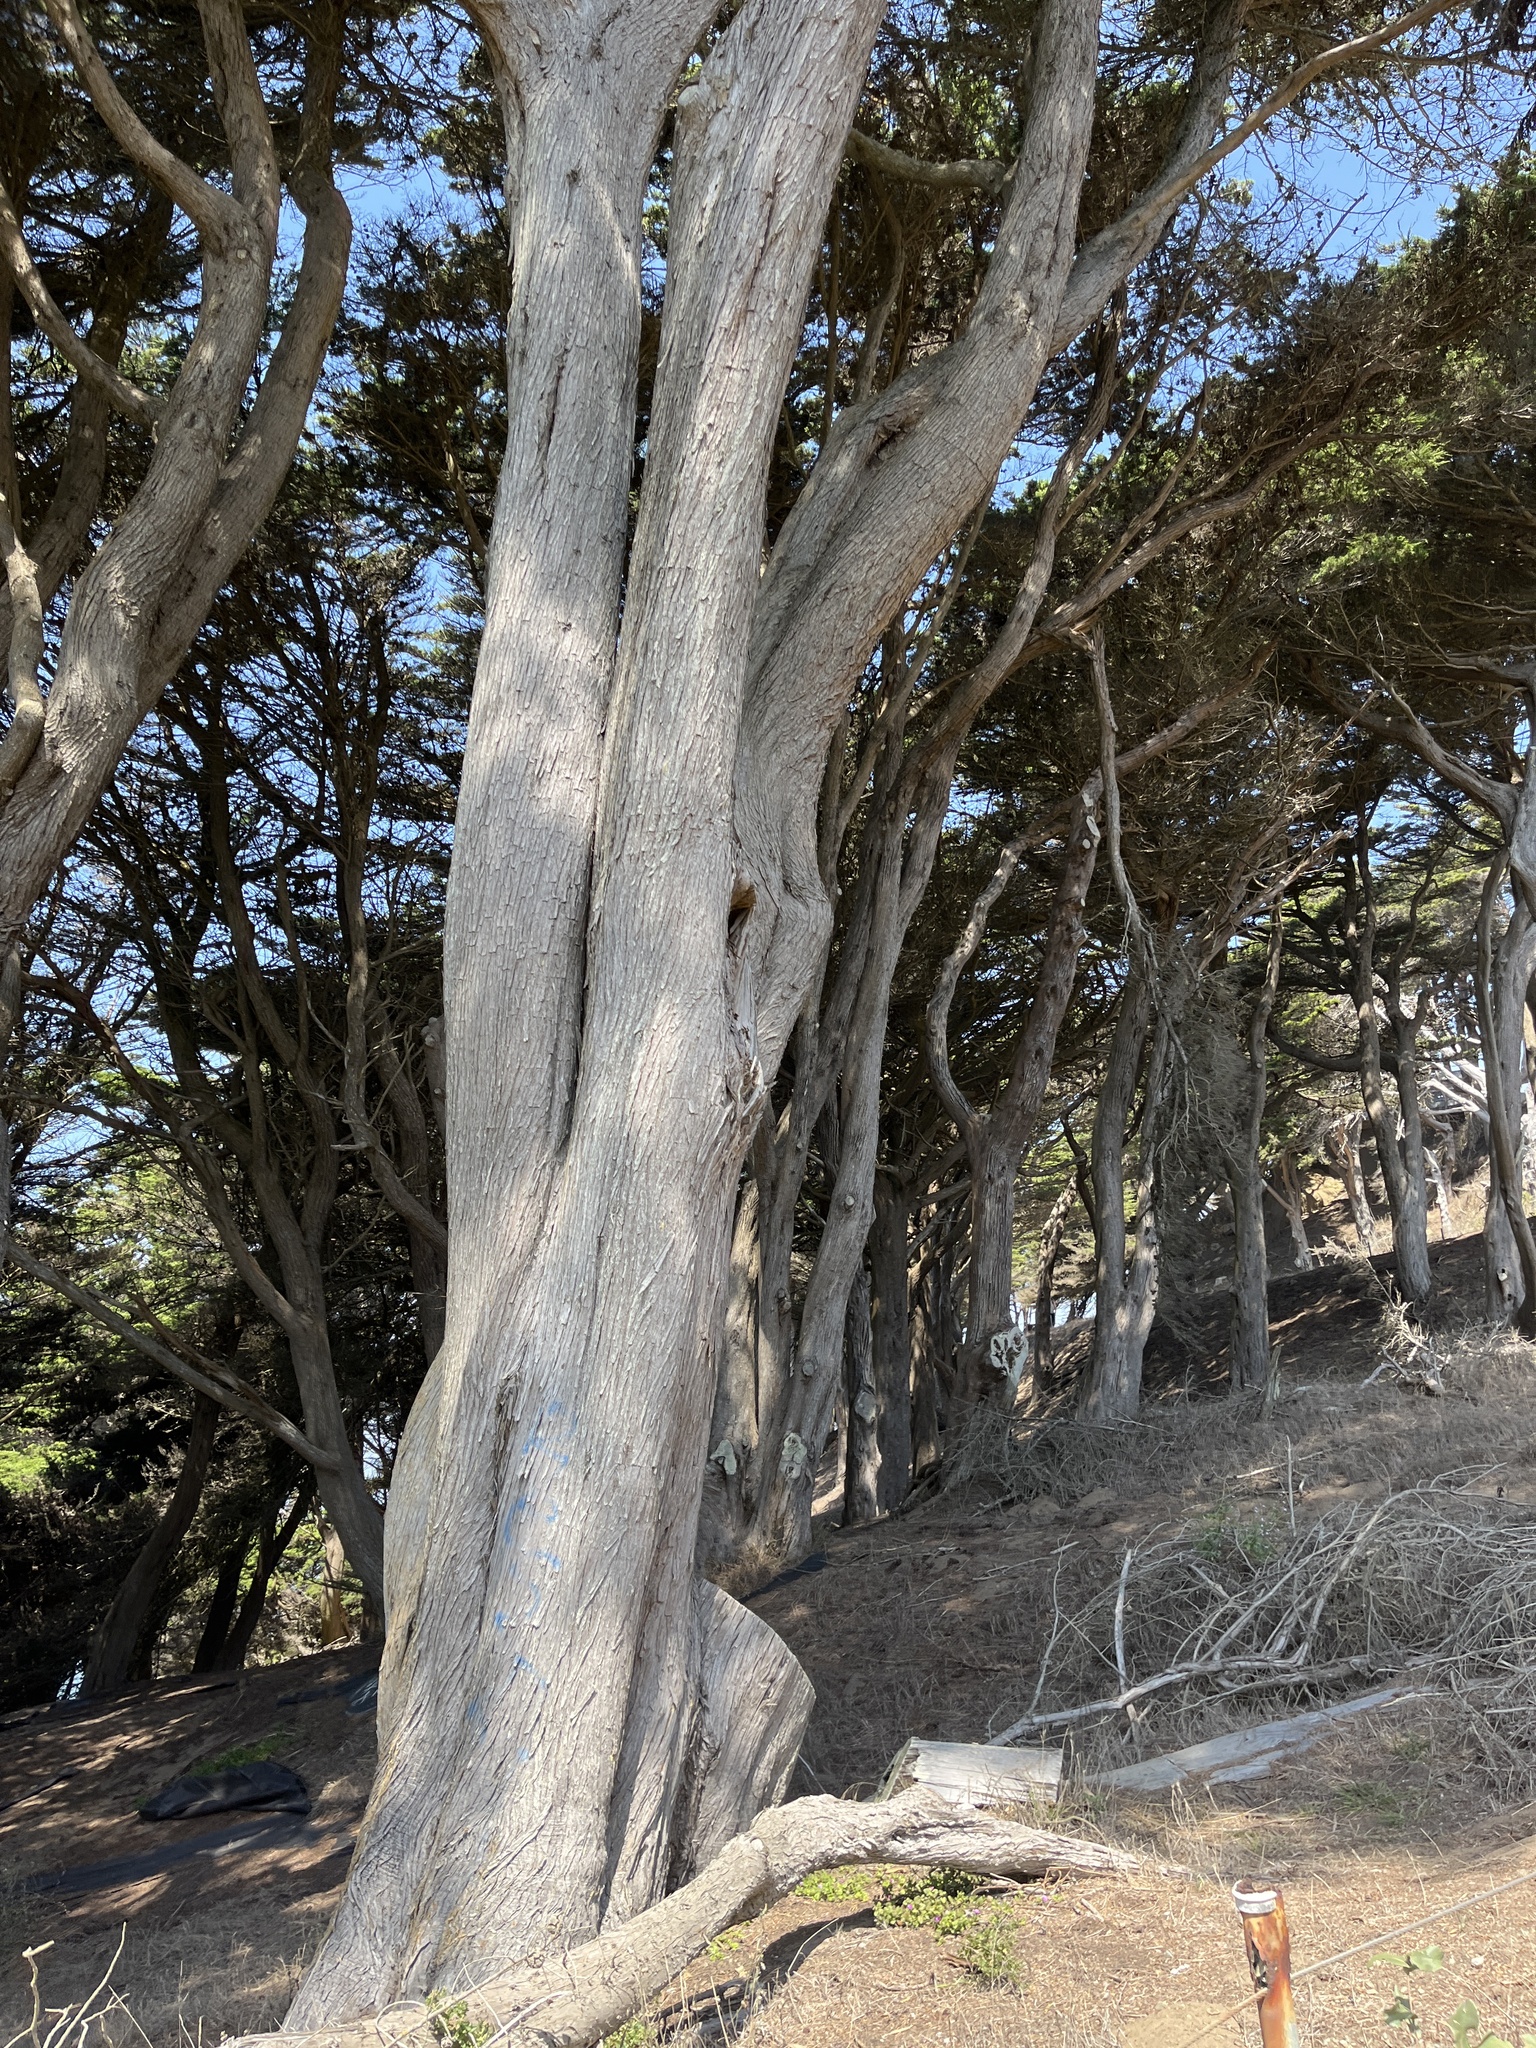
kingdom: Plantae
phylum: Tracheophyta
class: Pinopsida
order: Pinales
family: Cupressaceae
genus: Cupressus
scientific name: Cupressus macrocarpa
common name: Monterey cypress
